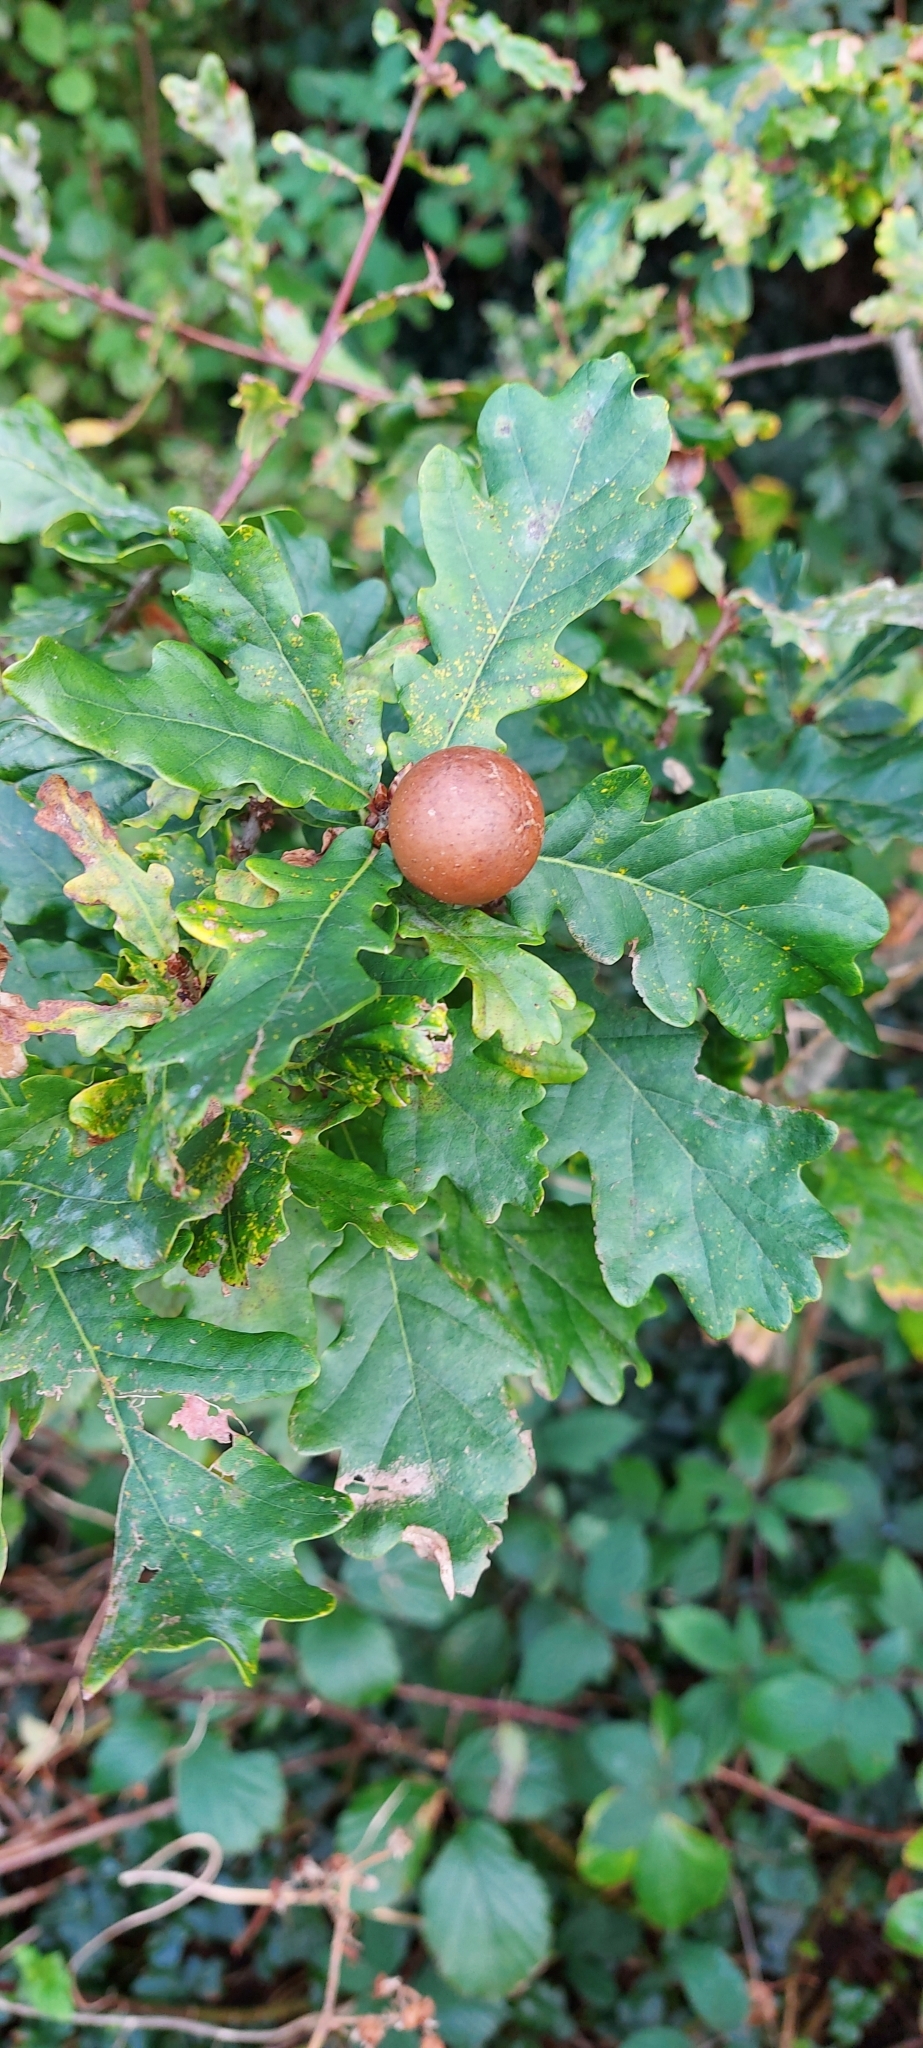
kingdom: Animalia
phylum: Arthropoda
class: Insecta
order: Hymenoptera
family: Cynipidae
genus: Andricus
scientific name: Andricus kollari
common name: Marble gall
